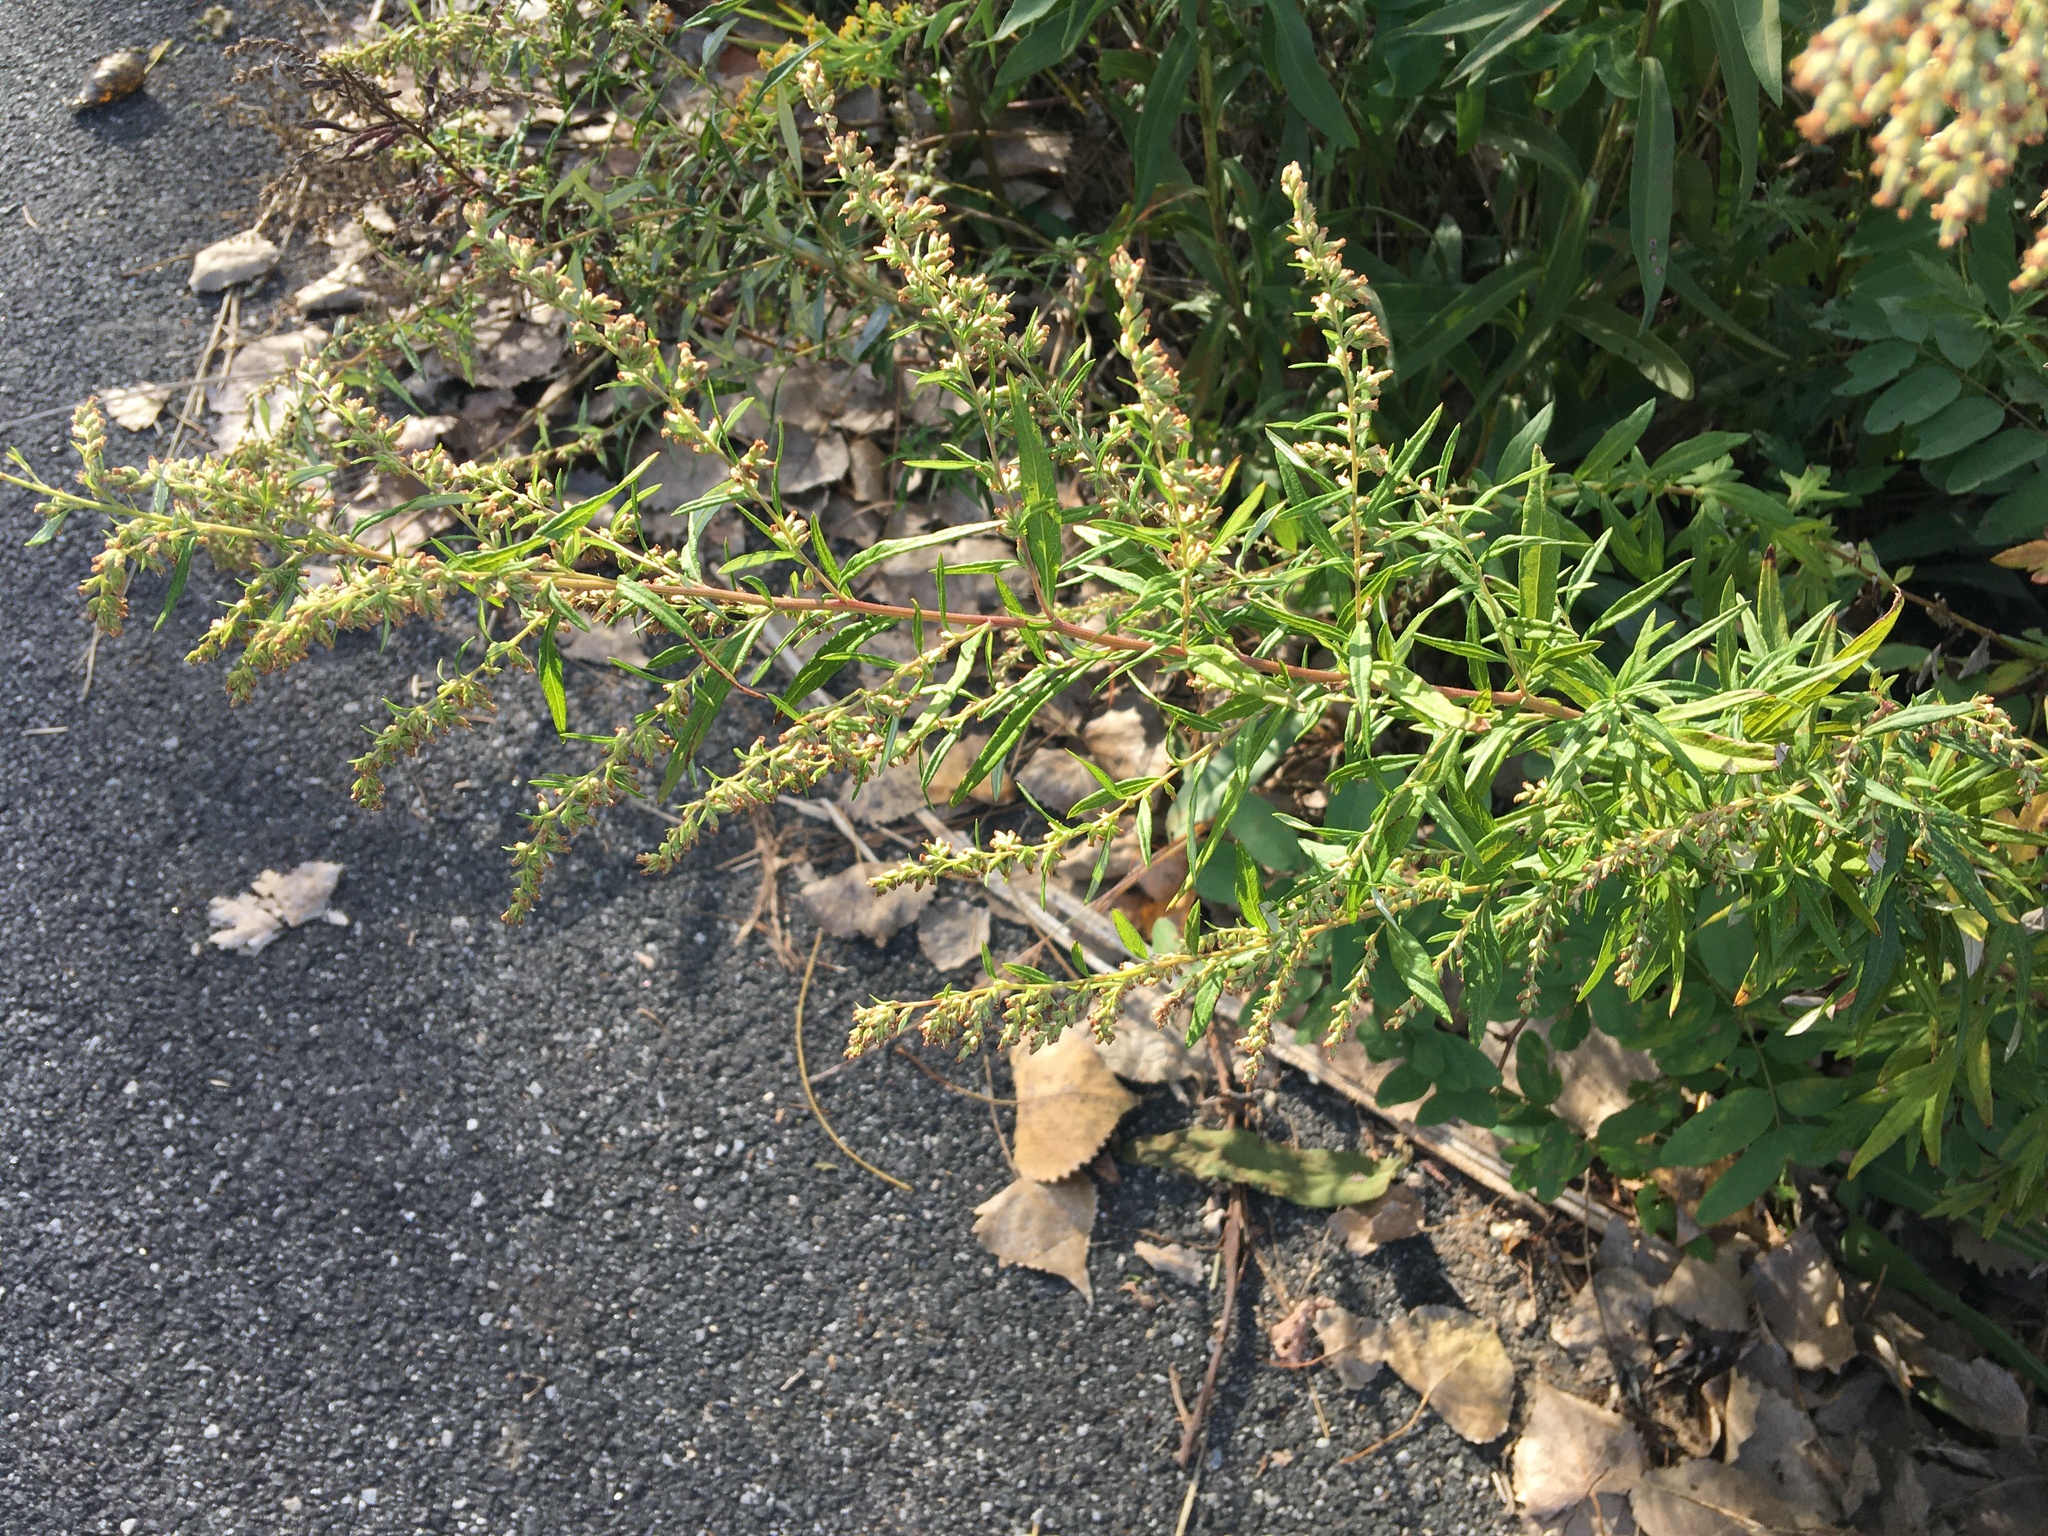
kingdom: Plantae
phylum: Tracheophyta
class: Magnoliopsida
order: Asterales
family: Asteraceae
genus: Artemisia
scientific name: Artemisia vulgaris
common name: Mugwort
